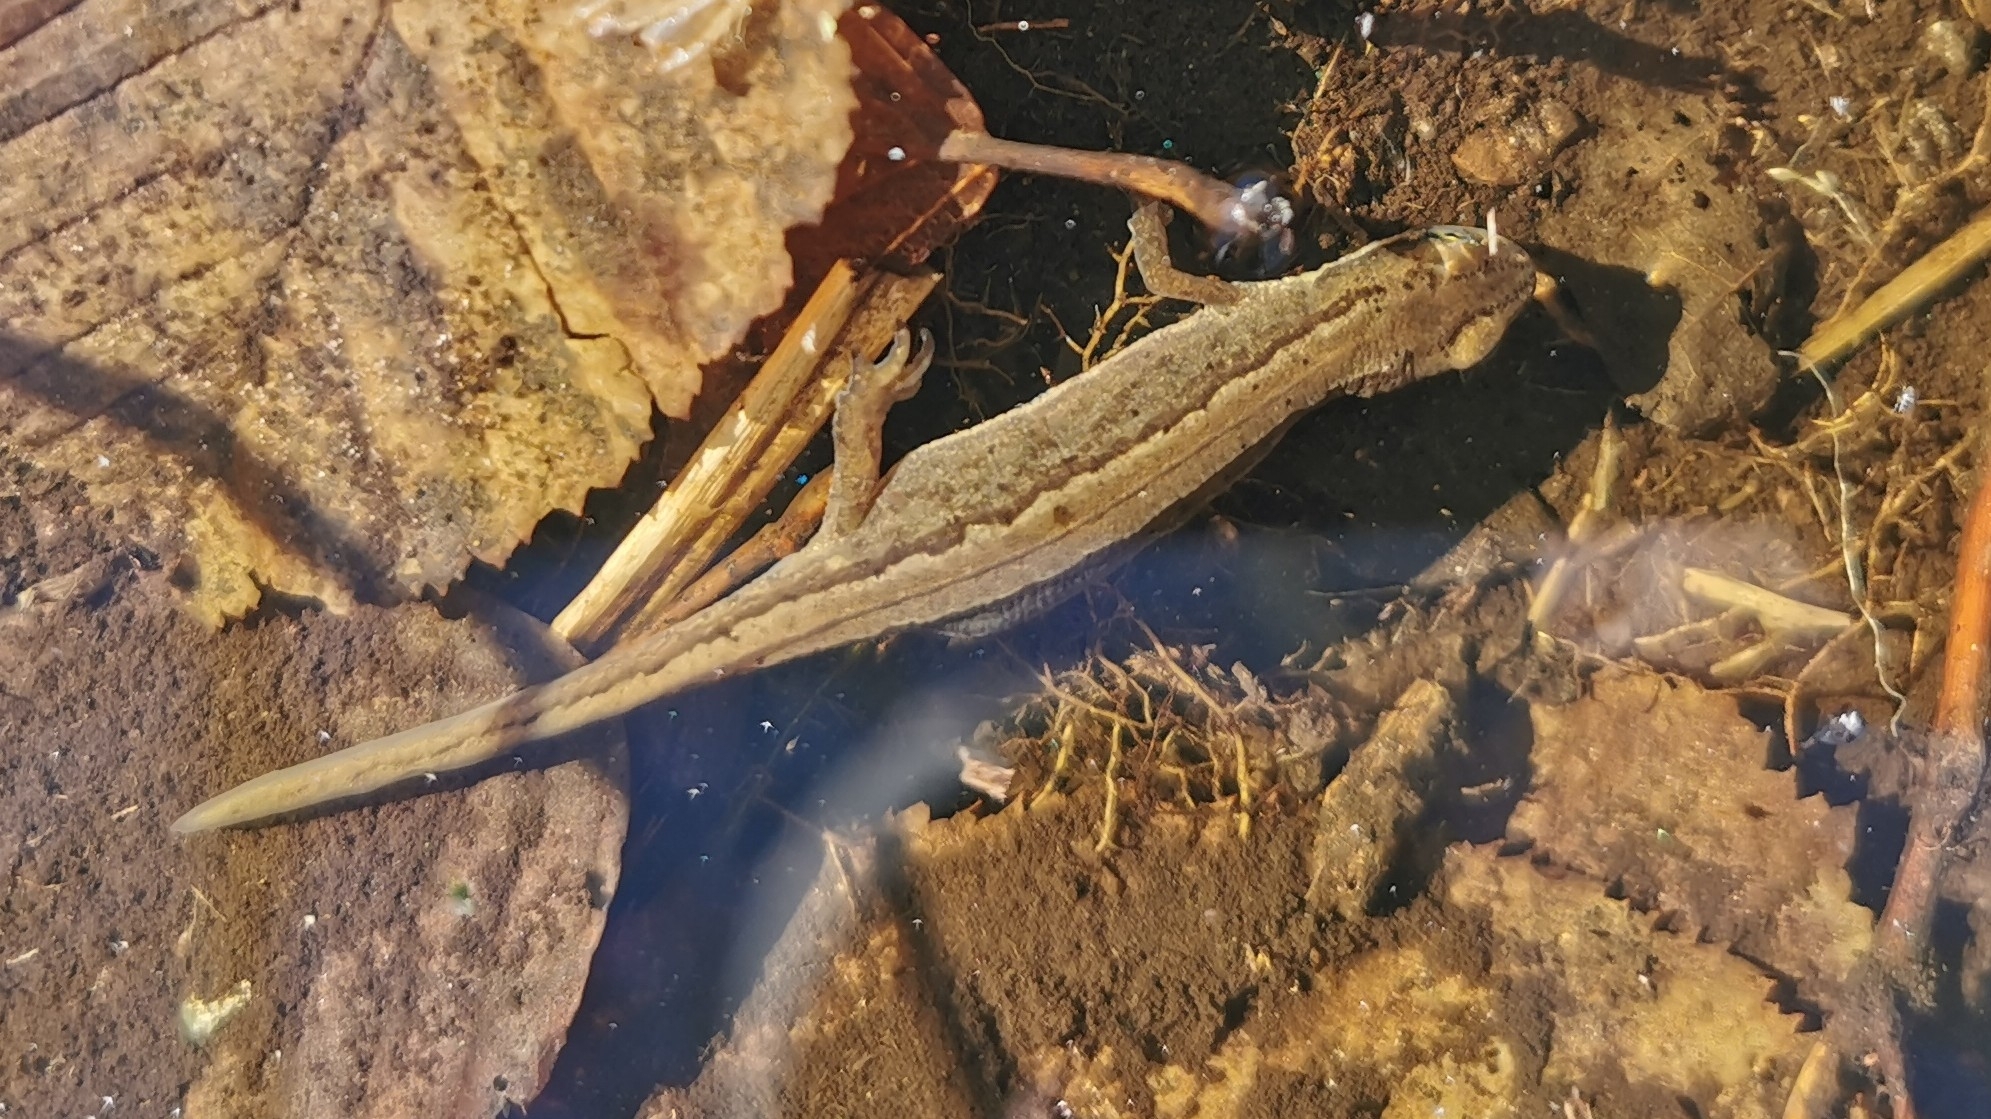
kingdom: Animalia
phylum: Chordata
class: Amphibia
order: Caudata
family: Salamandridae
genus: Lissotriton
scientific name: Lissotriton vulgaris
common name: Smooth newt
